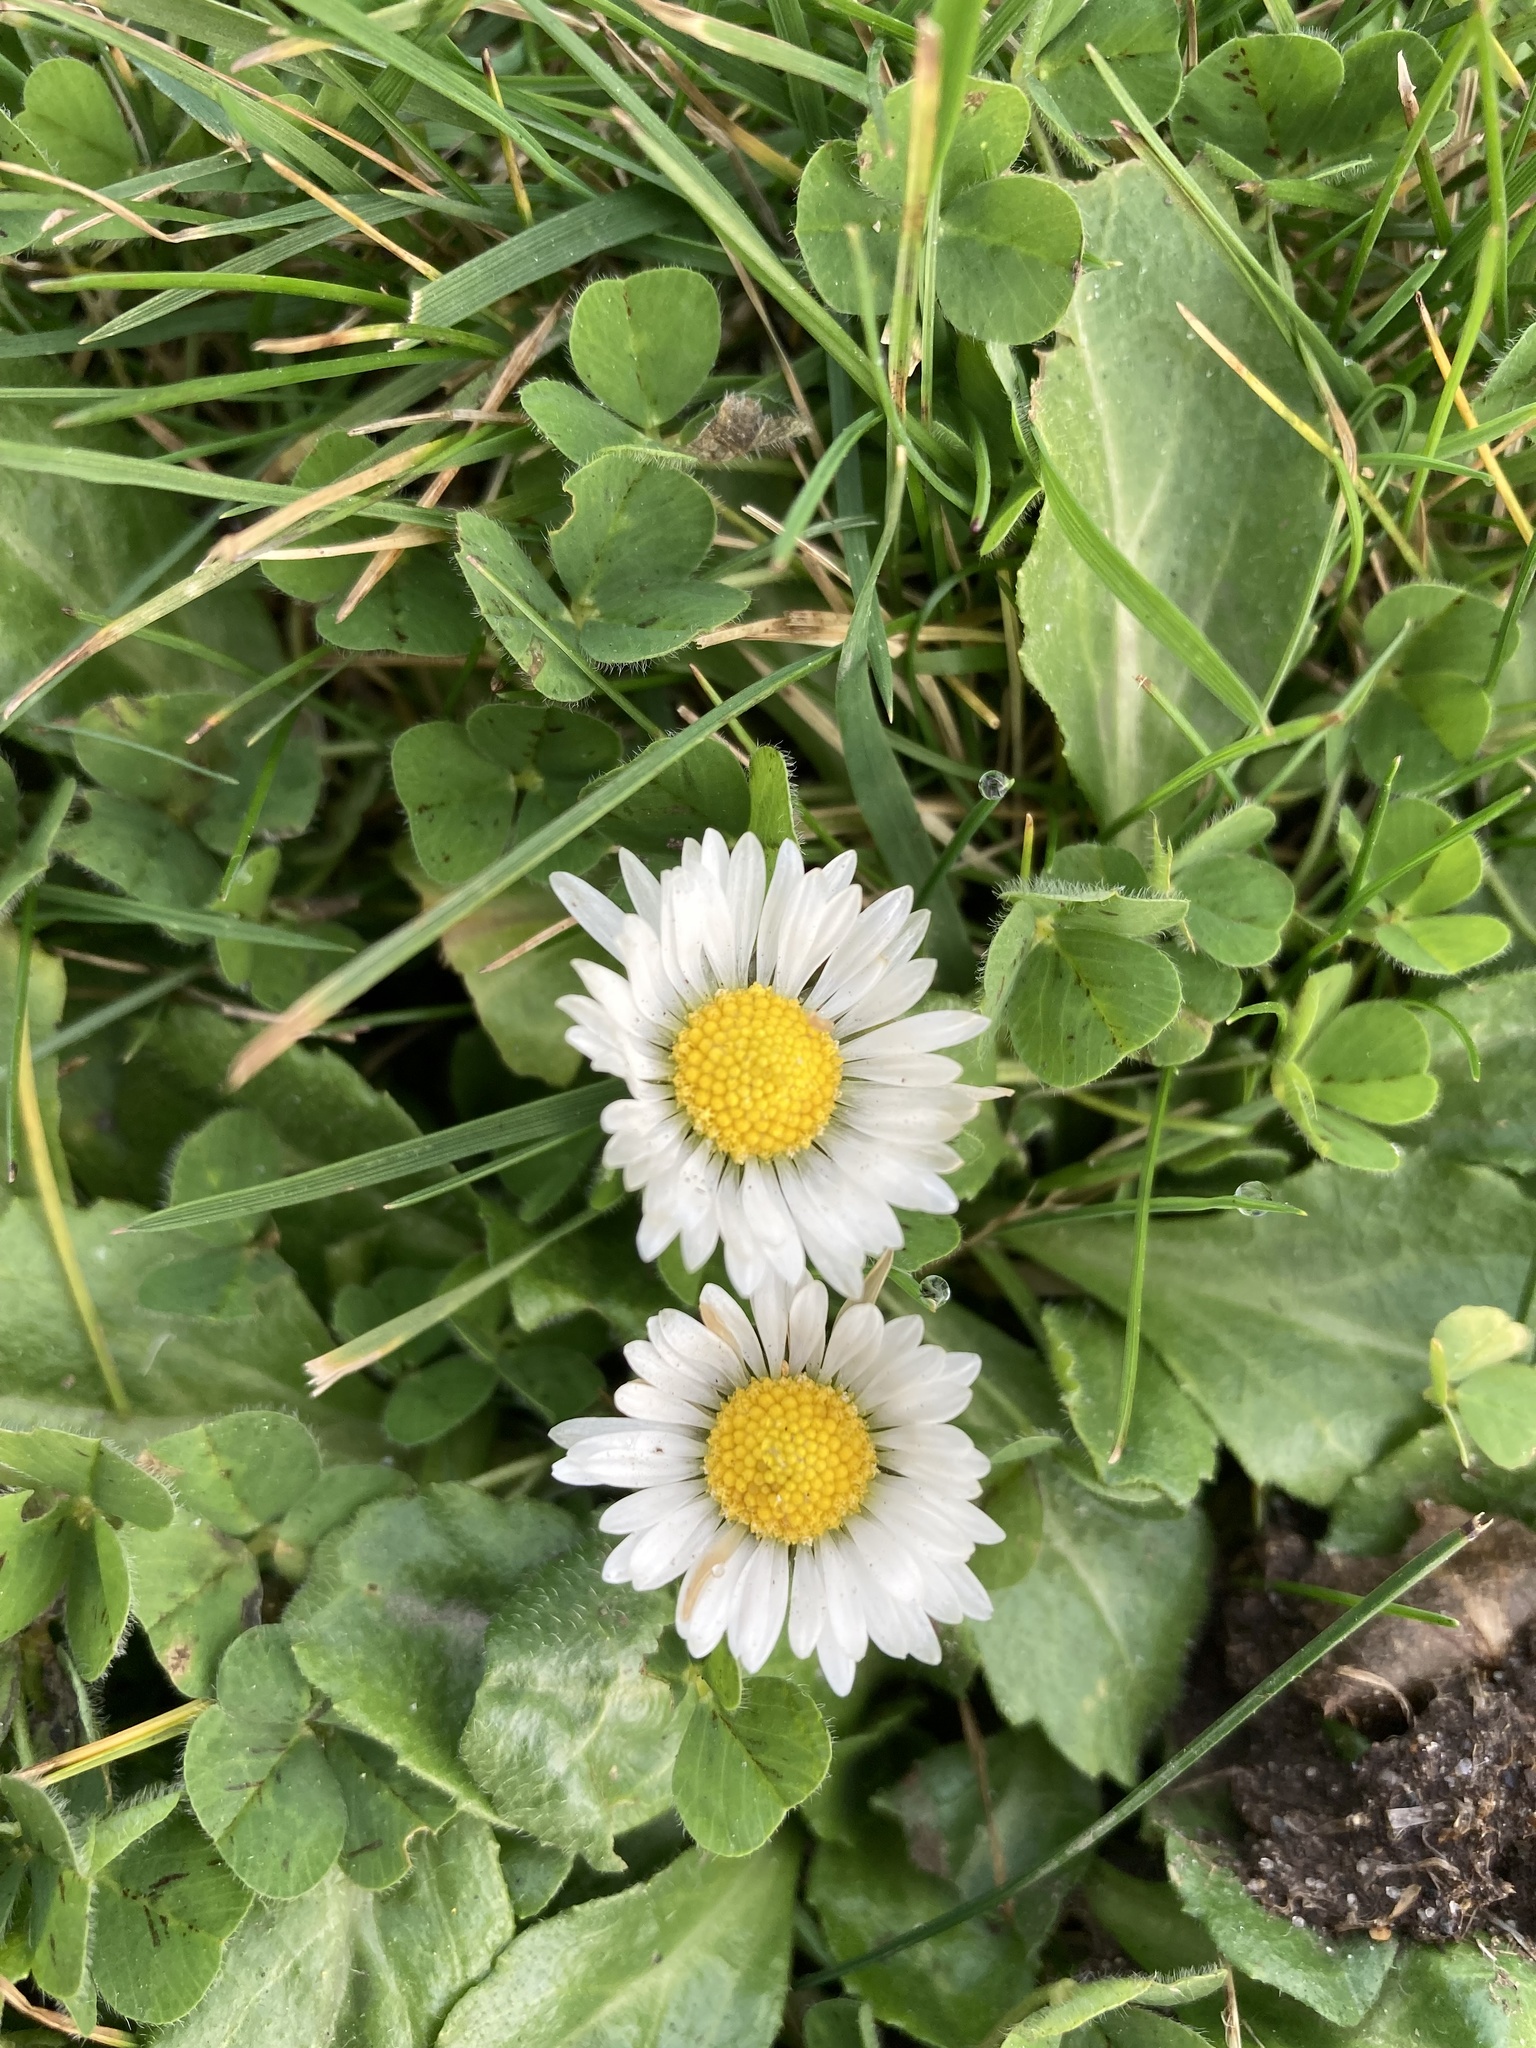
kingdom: Plantae
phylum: Tracheophyta
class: Magnoliopsida
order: Asterales
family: Asteraceae
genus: Bellis
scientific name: Bellis perennis
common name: Lawndaisy
